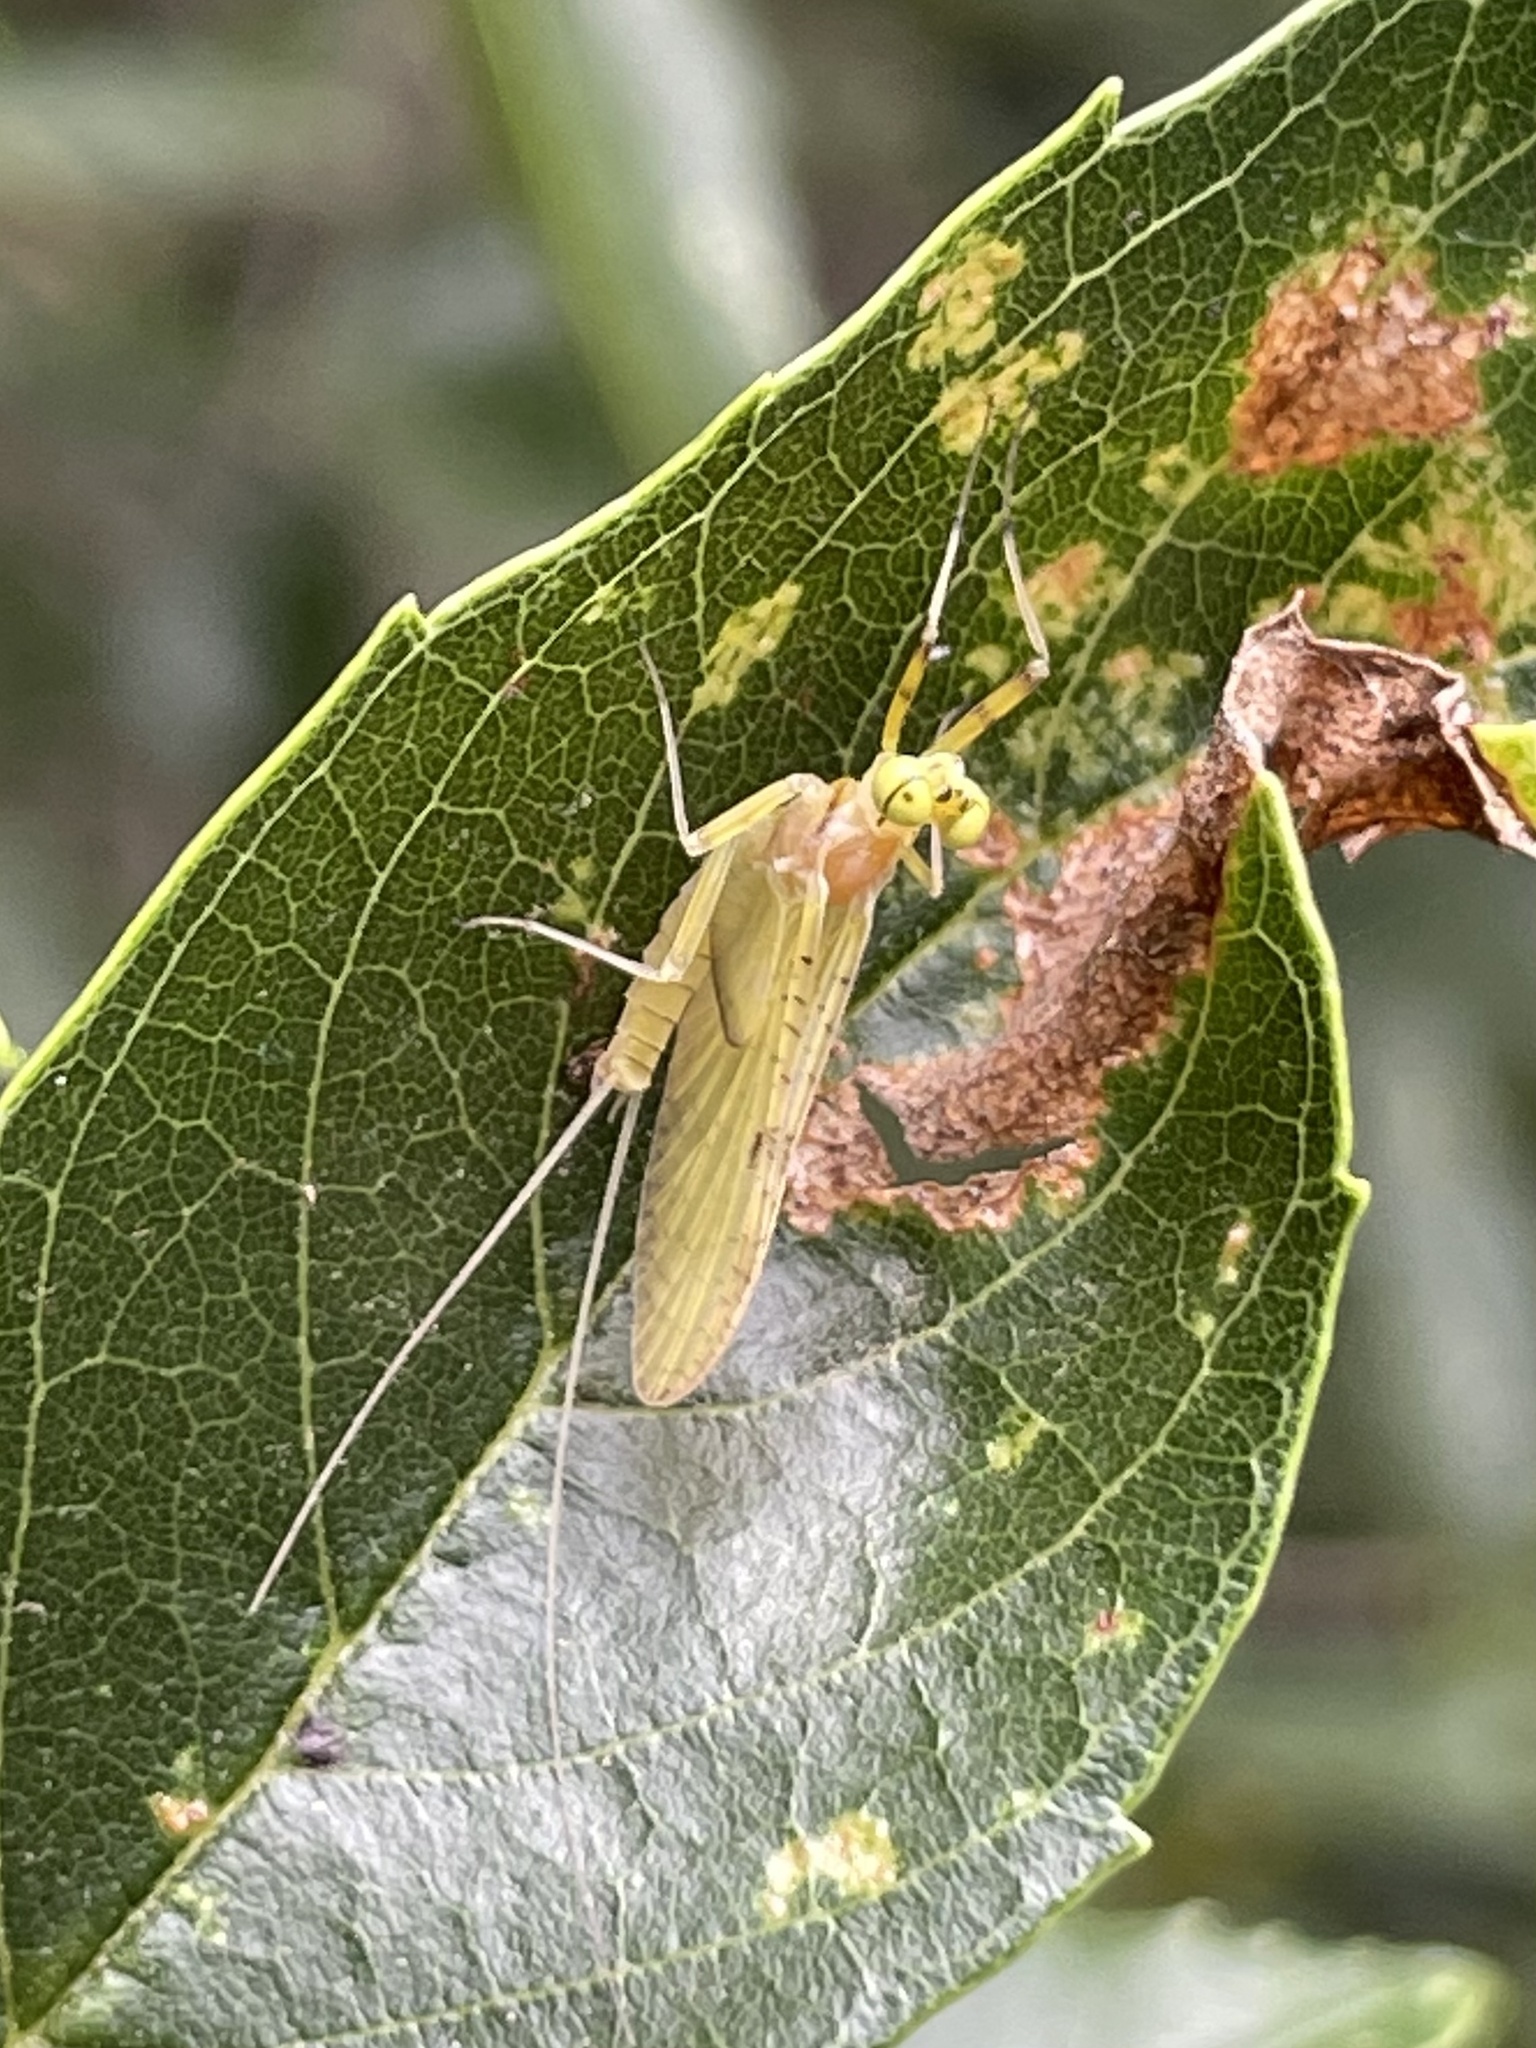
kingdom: Animalia
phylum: Arthropoda
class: Insecta
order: Ephemeroptera
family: Heptageniidae
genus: Stenacron
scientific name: Stenacron interpunctatum
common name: Orange cahill
